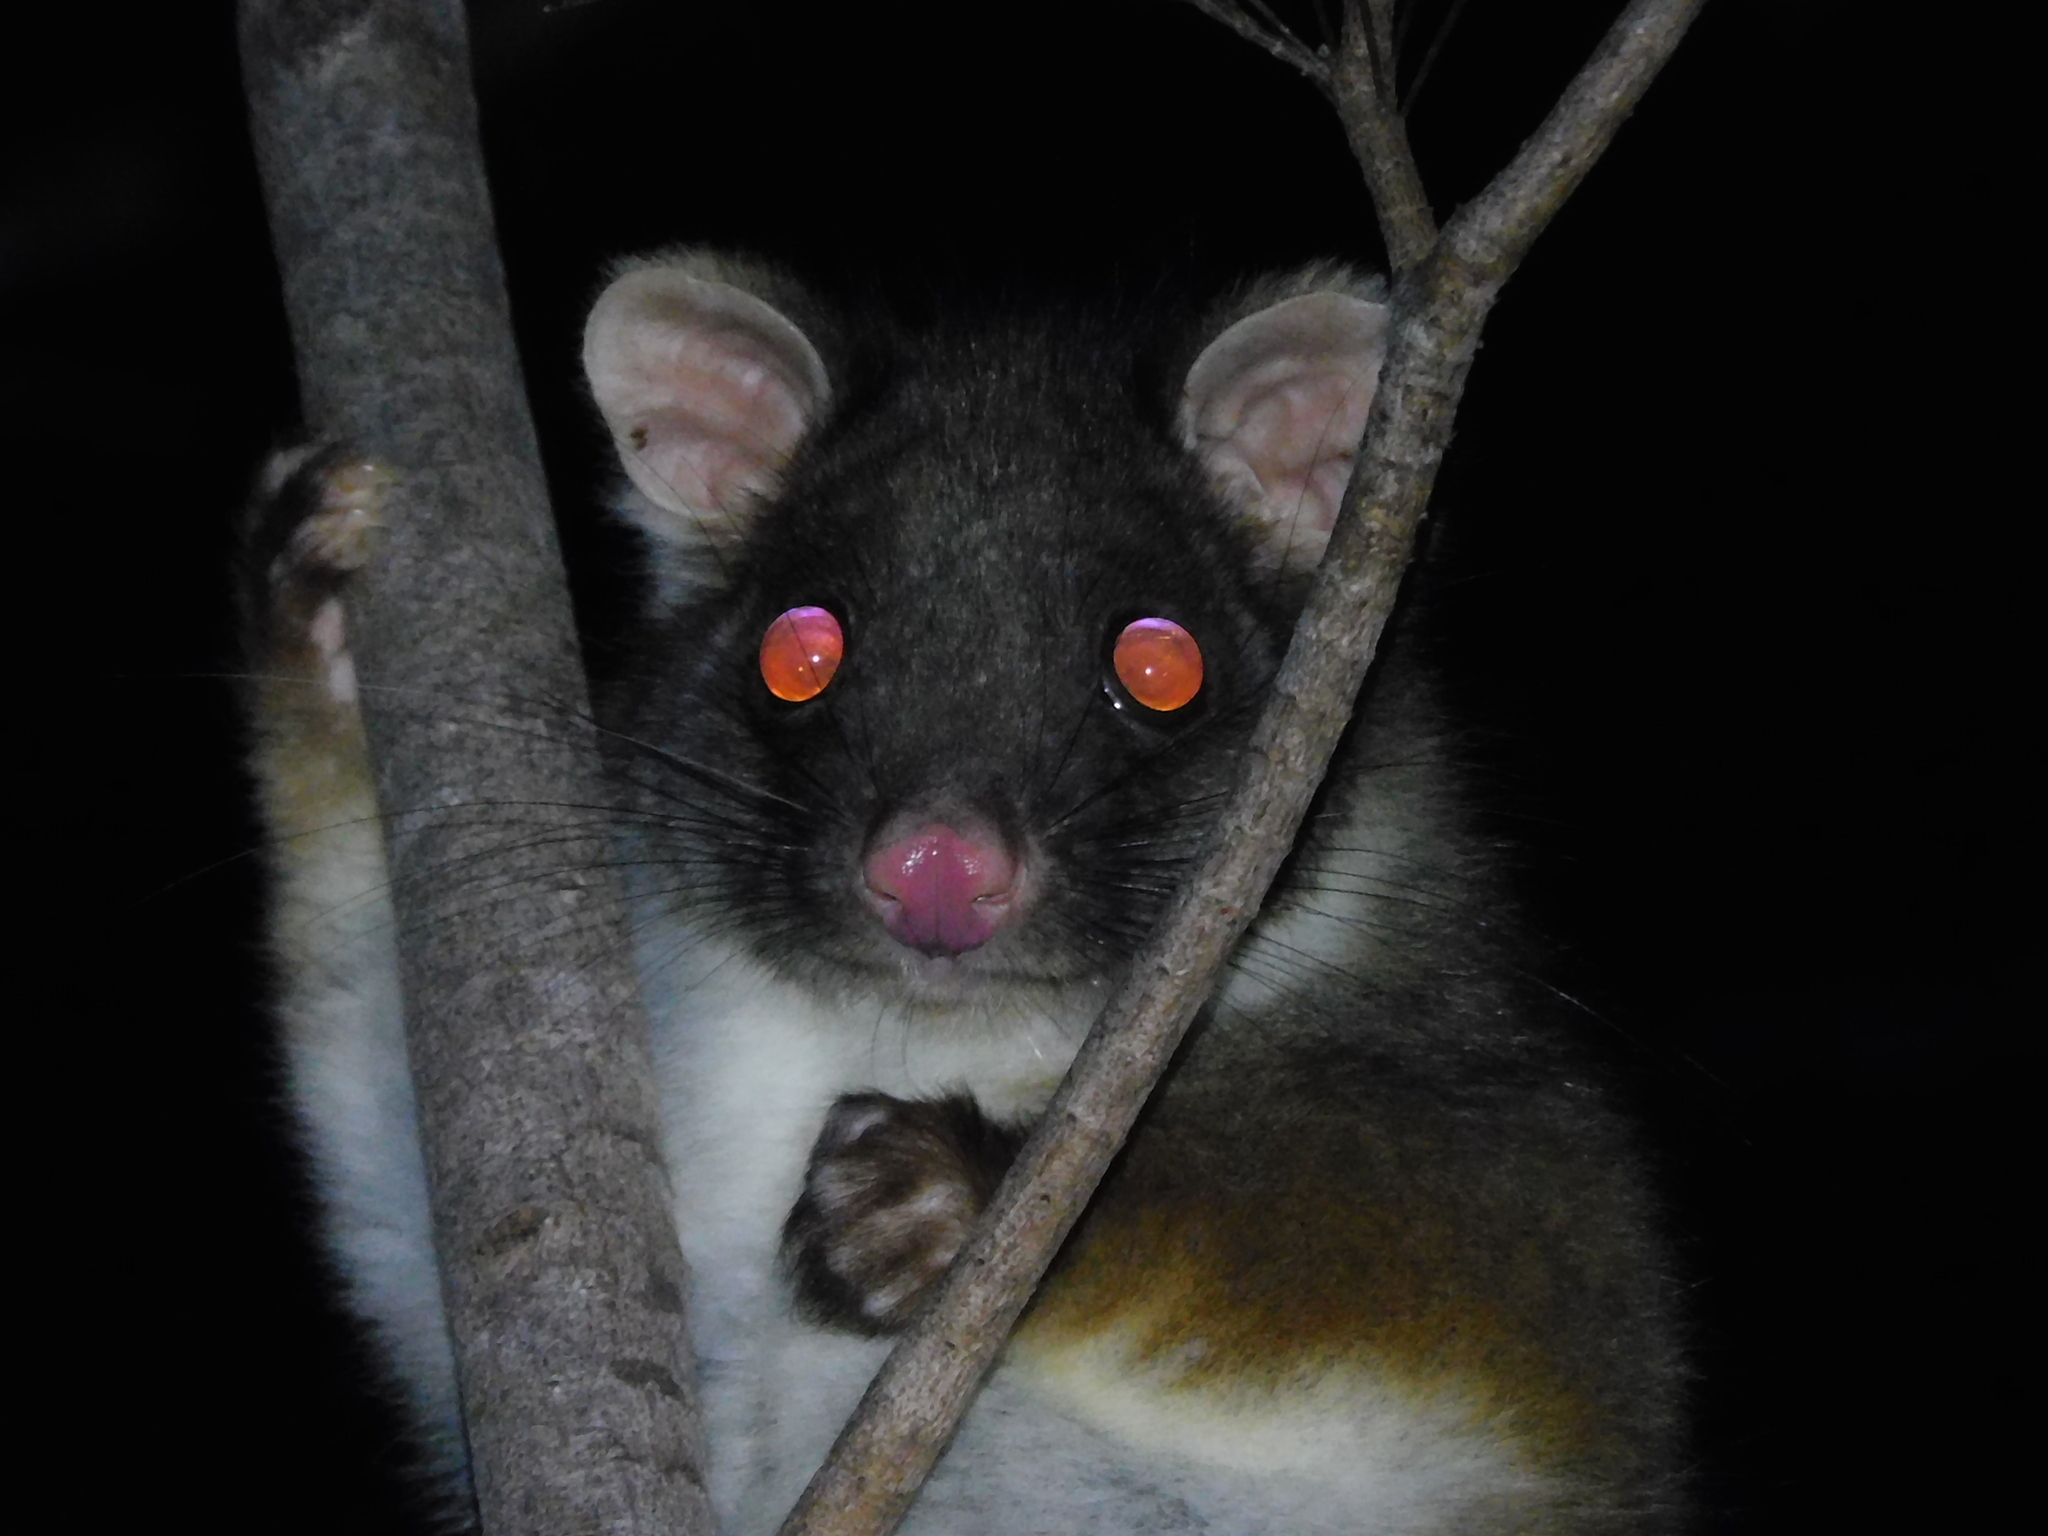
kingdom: Animalia
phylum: Chordata
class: Mammalia
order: Diprotodontia
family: Pseudocheiridae
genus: Pseudocheirus
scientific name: Pseudocheirus peregrinus
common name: Common ringtail possum
